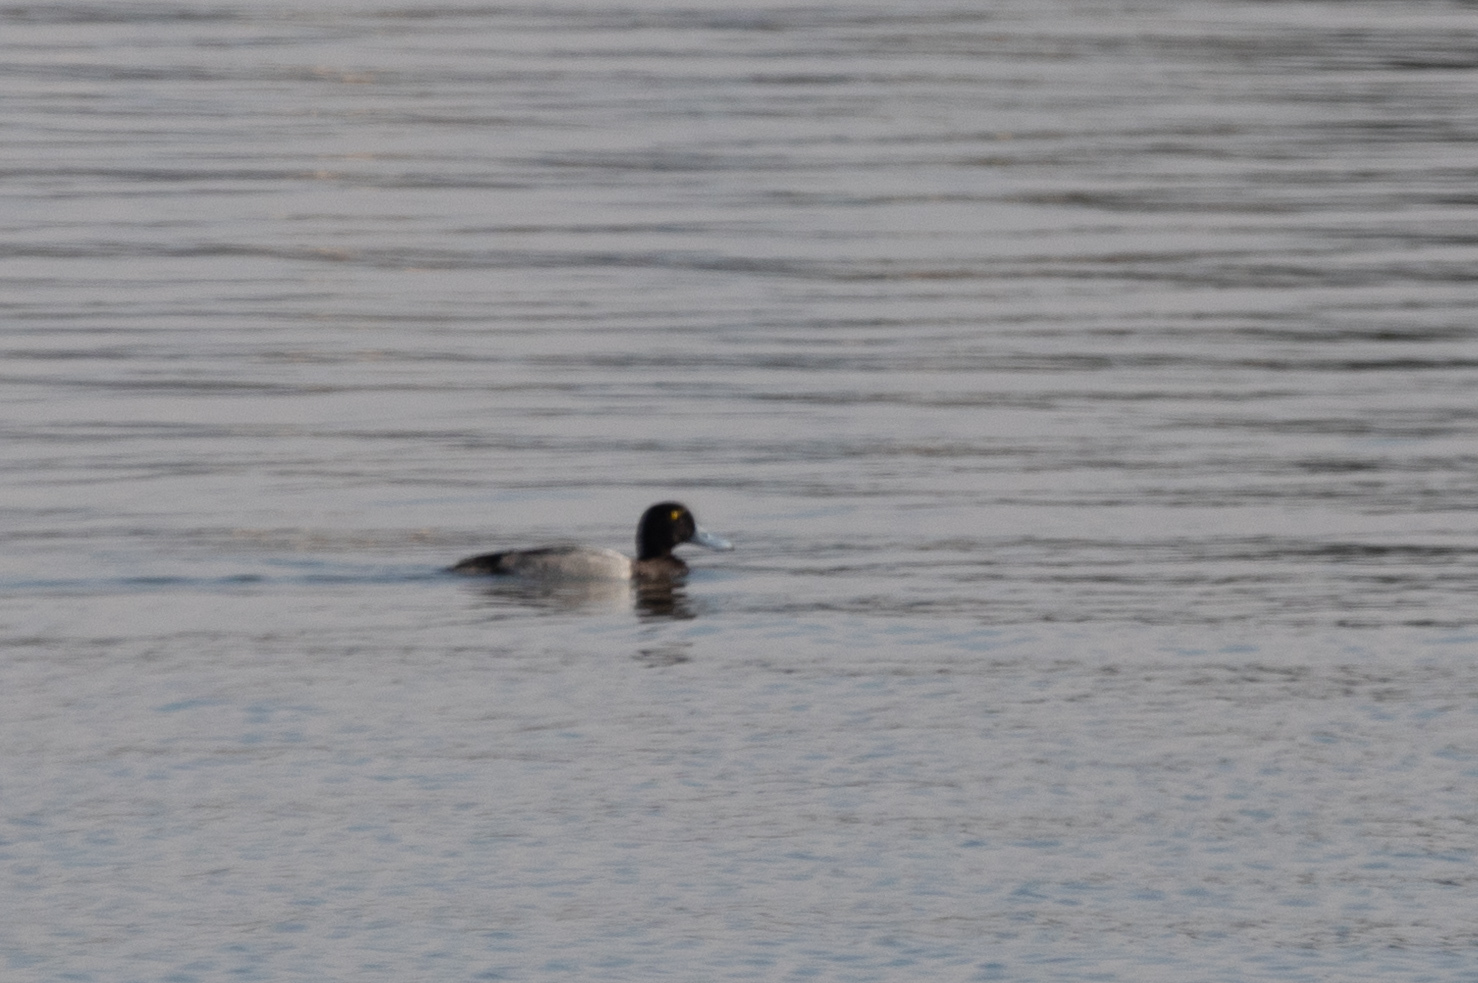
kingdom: Animalia
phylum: Chordata
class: Aves
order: Anseriformes
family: Anatidae
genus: Aythya
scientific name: Aythya marila
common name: Greater scaup
